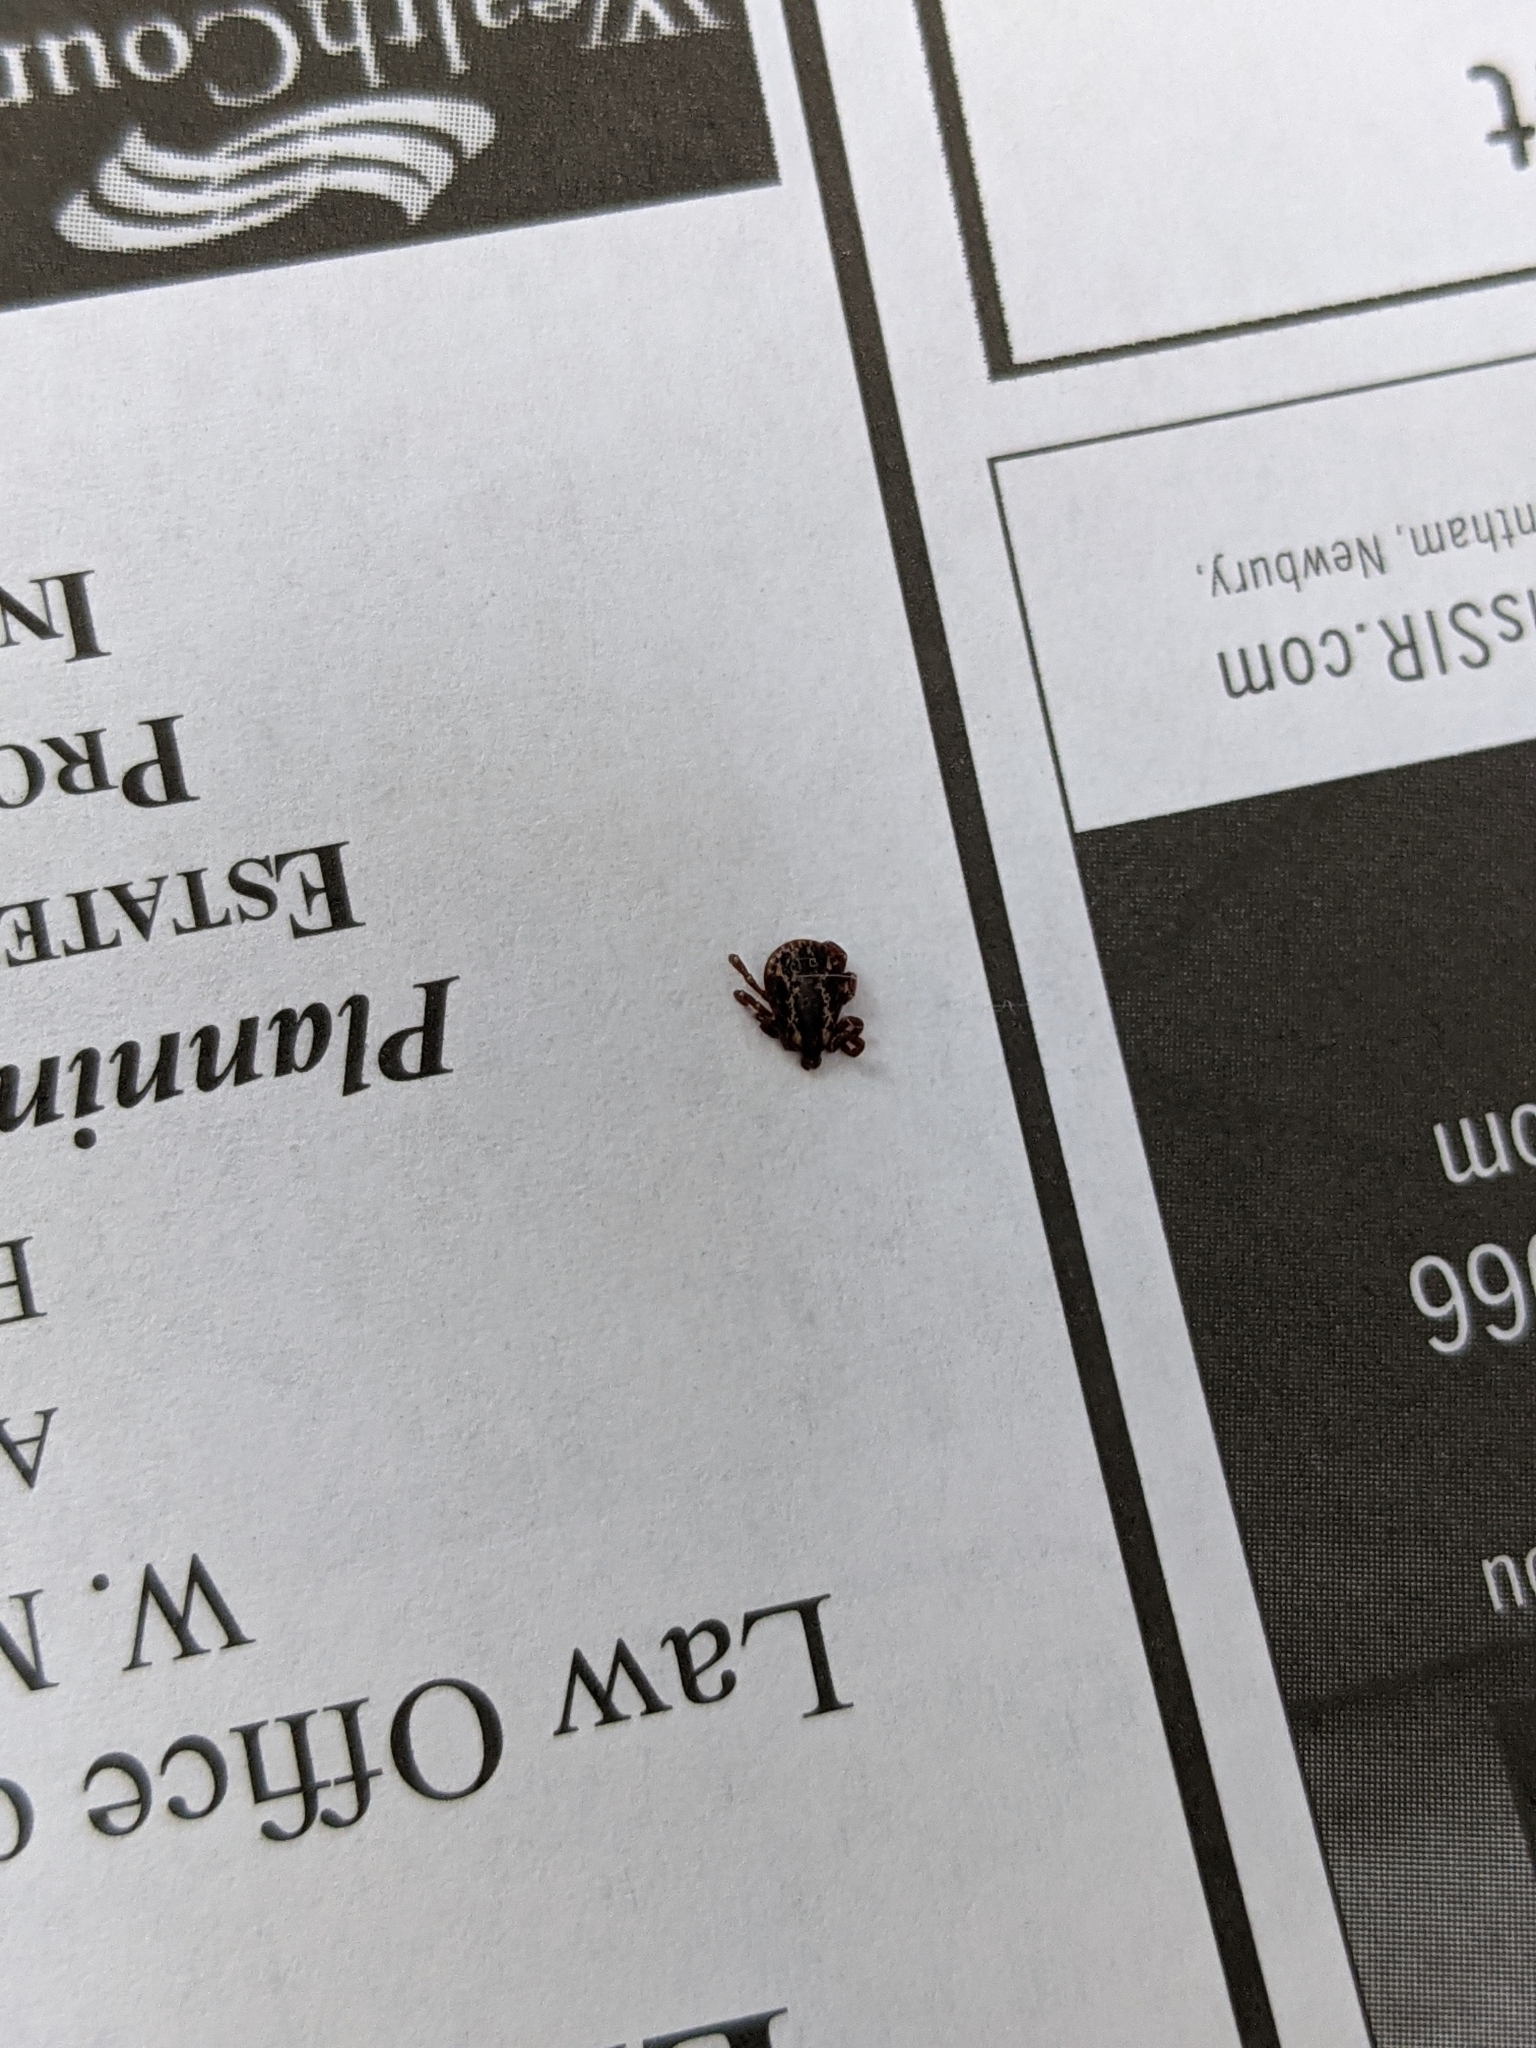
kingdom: Animalia
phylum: Arthropoda
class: Arachnida
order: Ixodida
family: Ixodidae
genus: Dermacentor
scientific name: Dermacentor variabilis
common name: American dog tick
